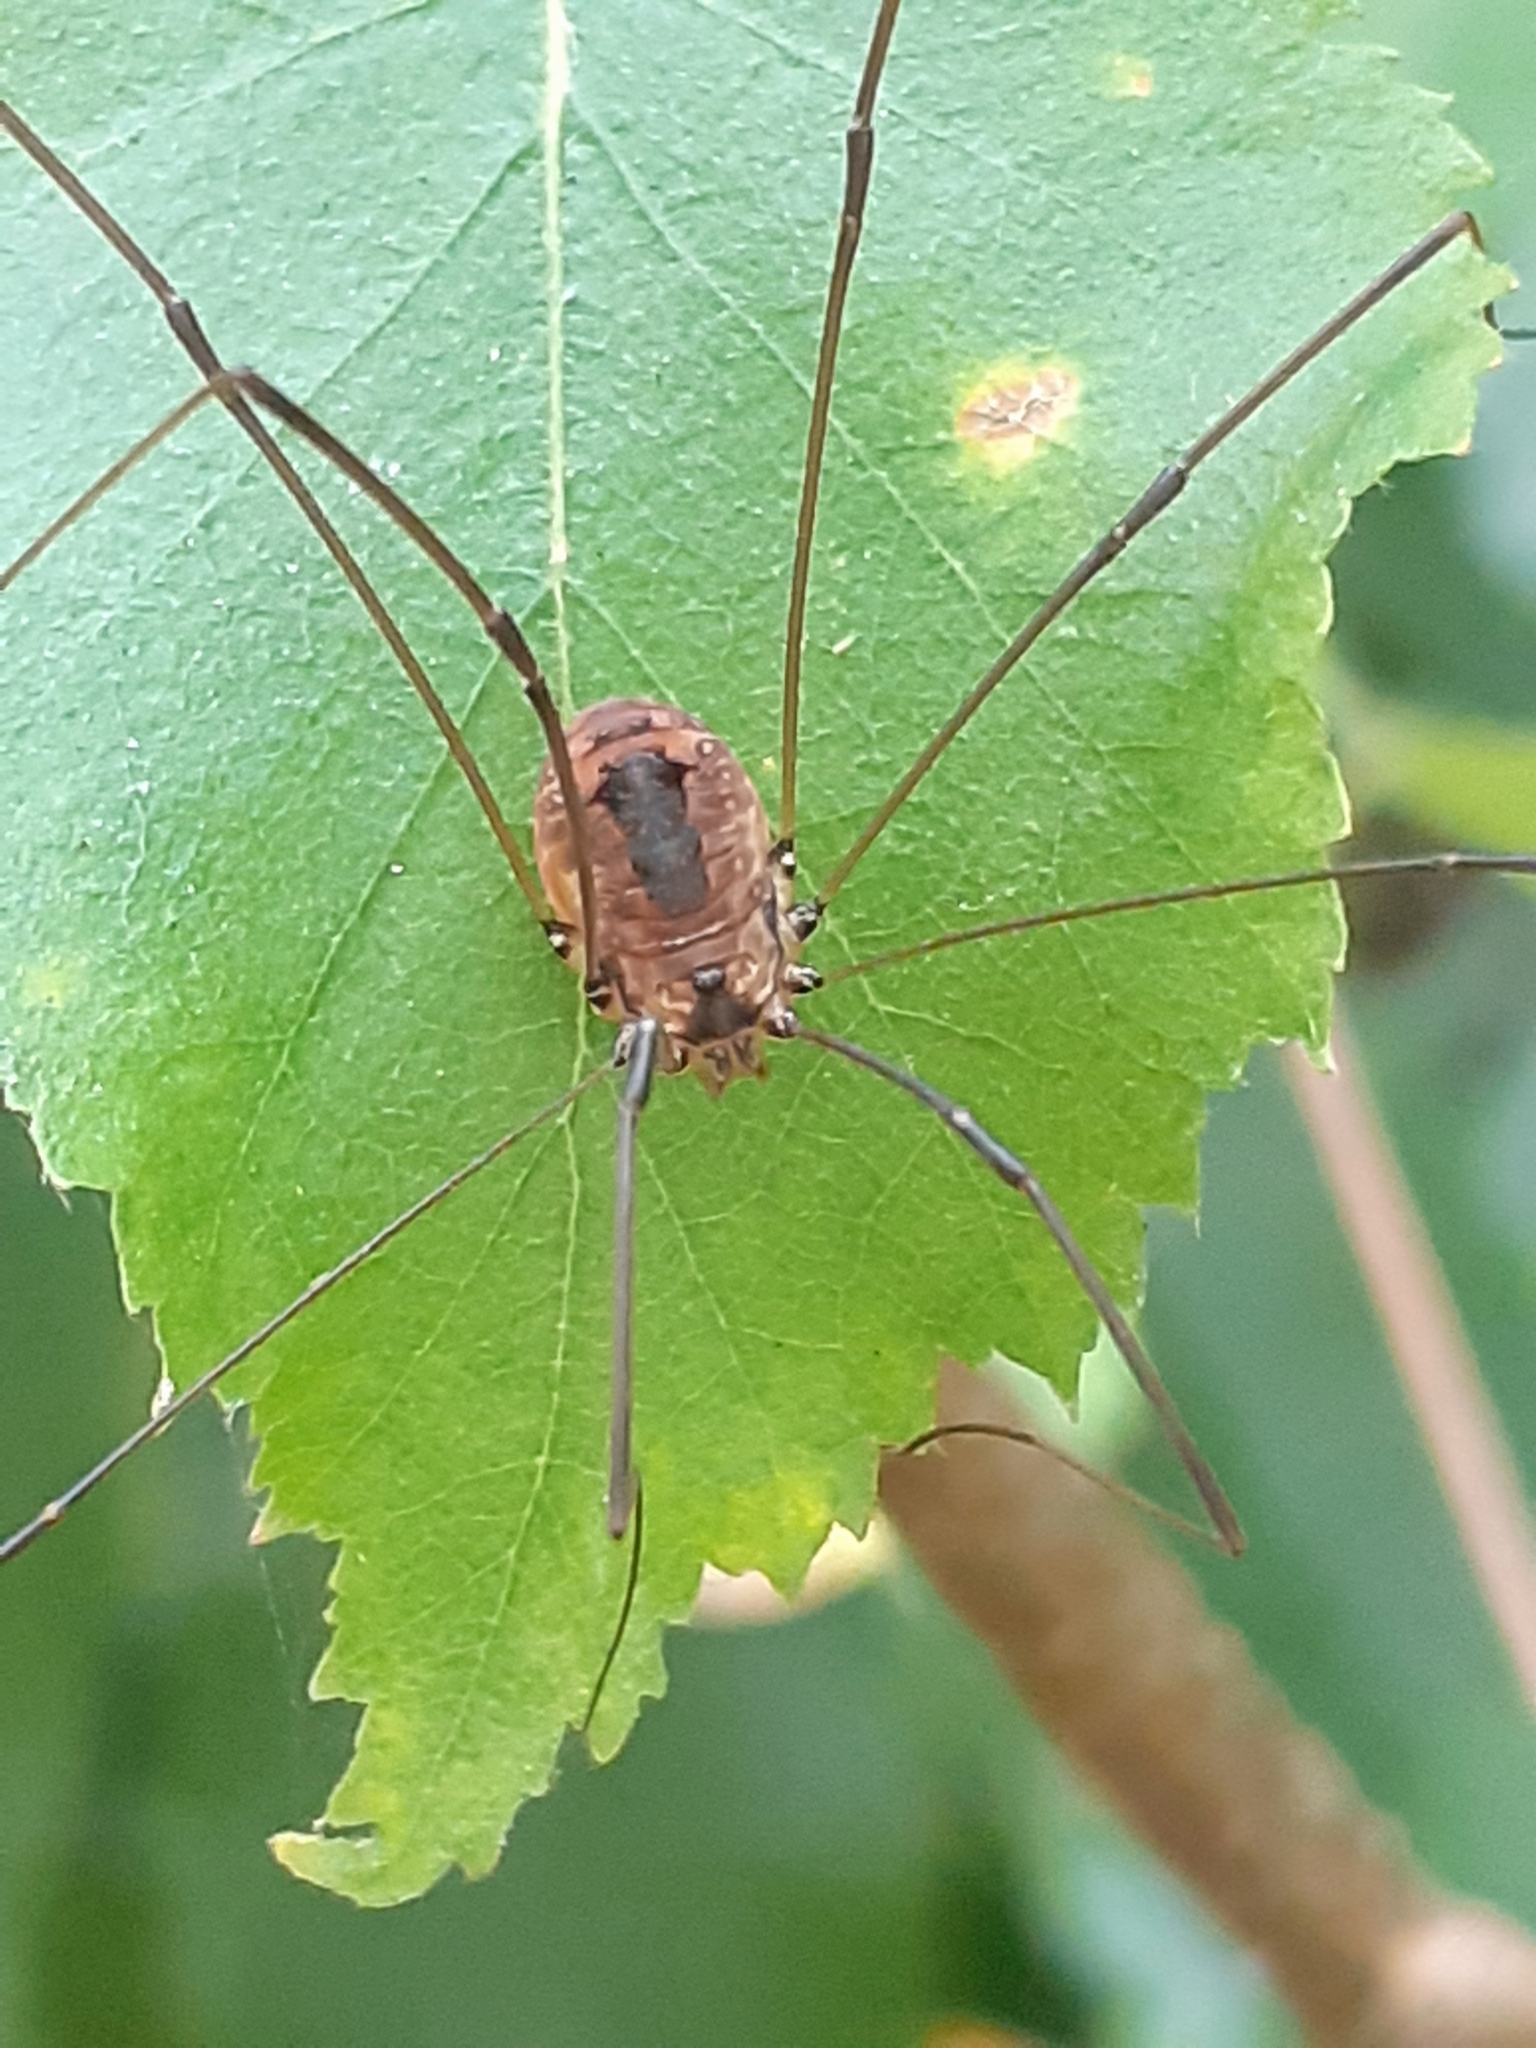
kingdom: Animalia
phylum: Arthropoda
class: Arachnida
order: Opiliones
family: Sclerosomatidae
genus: Leiobunum
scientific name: Leiobunum rotundum
